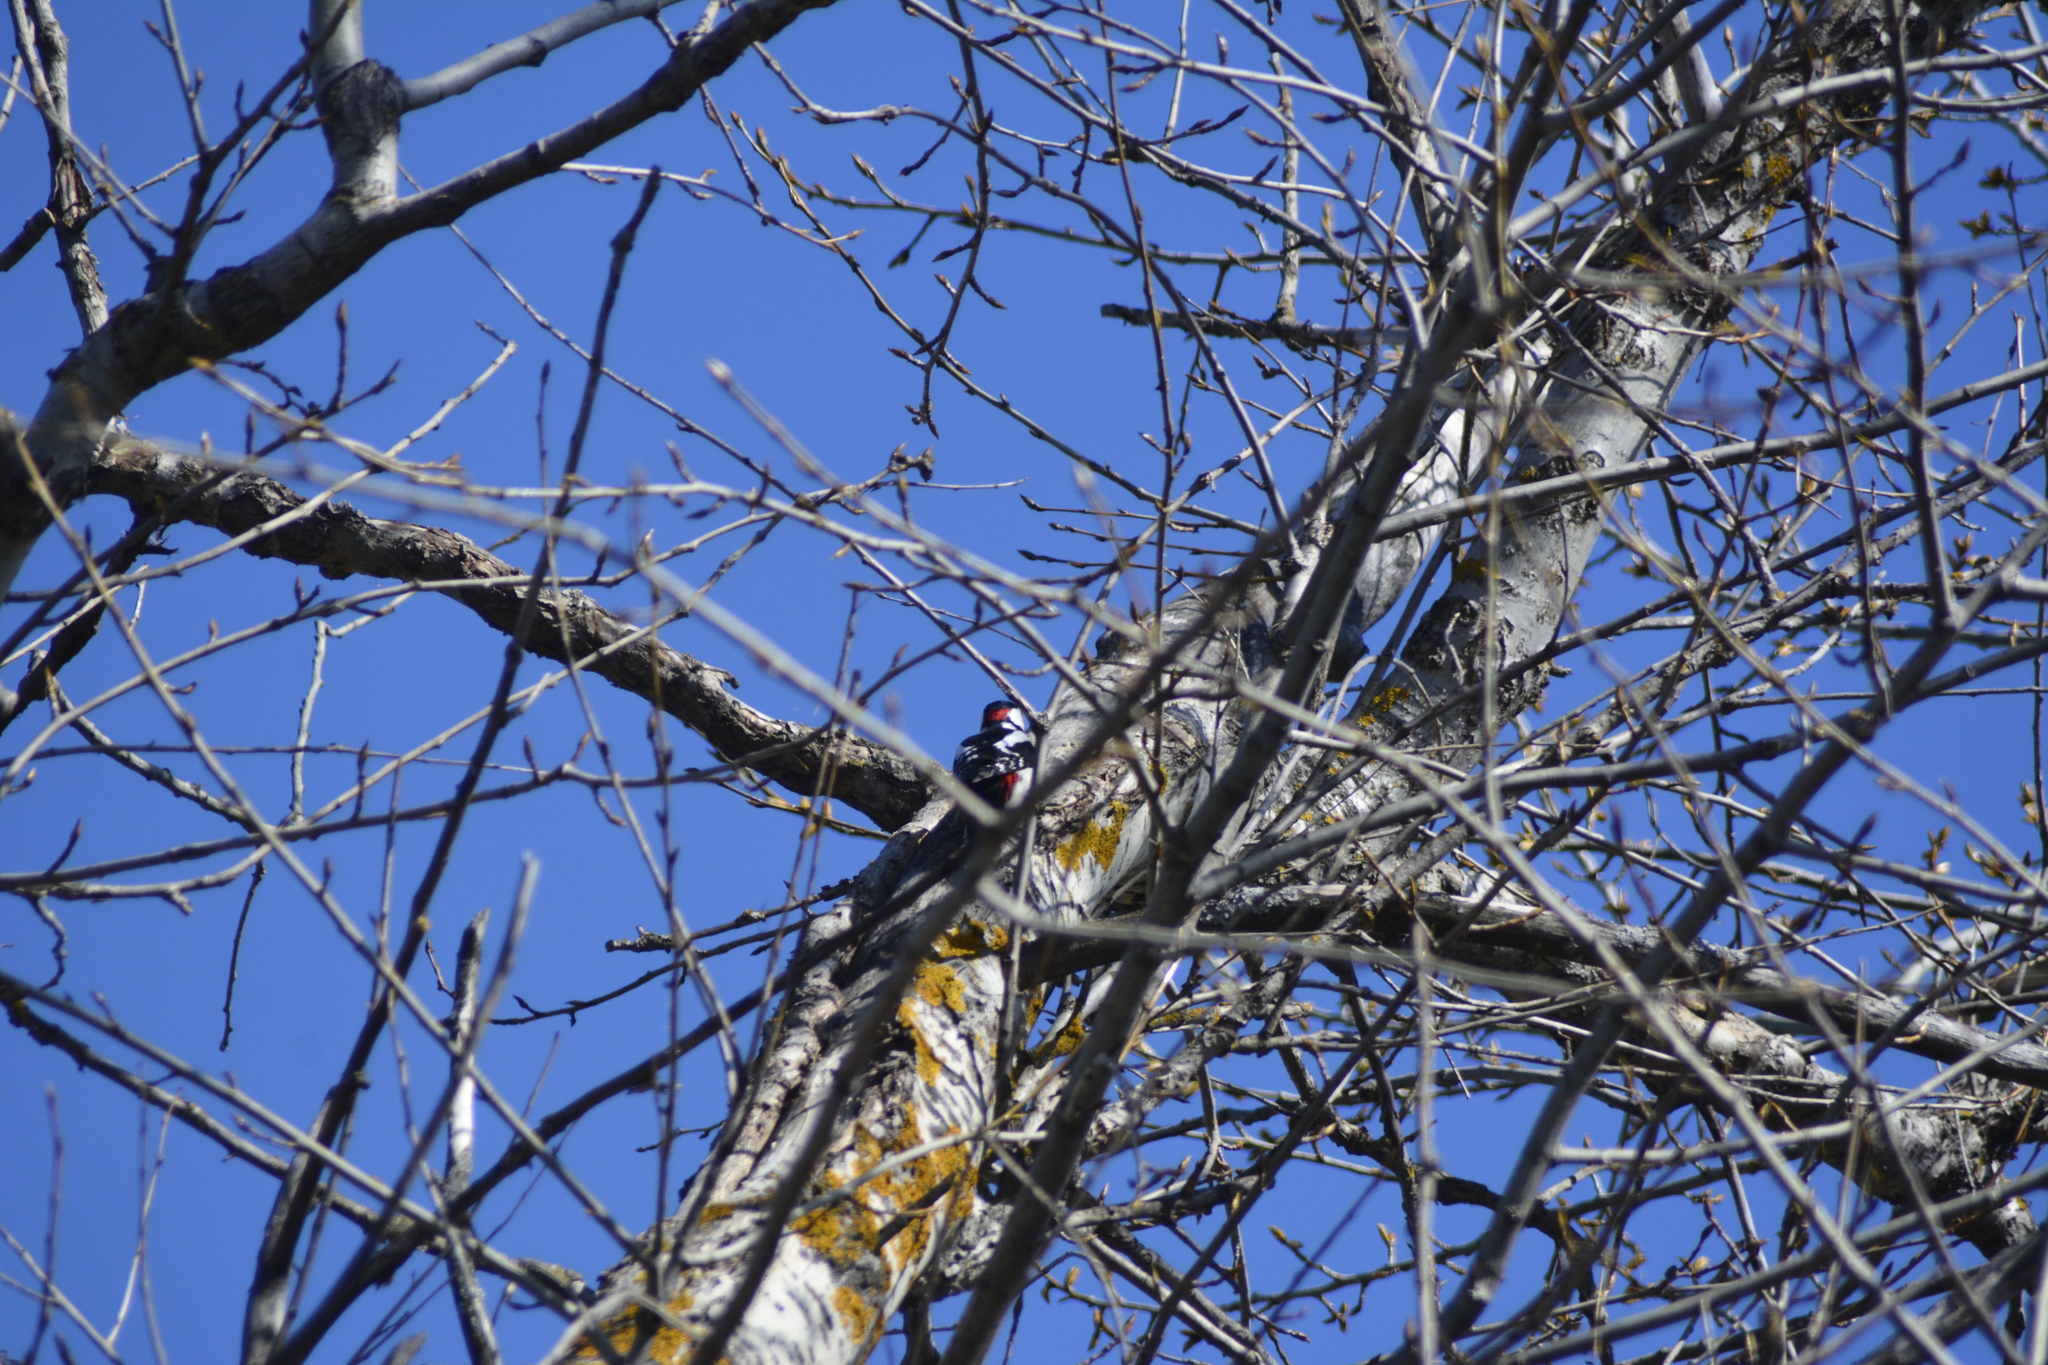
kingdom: Animalia
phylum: Chordata
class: Aves
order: Piciformes
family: Picidae
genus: Dendrocopos
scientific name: Dendrocopos major
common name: Great spotted woodpecker
